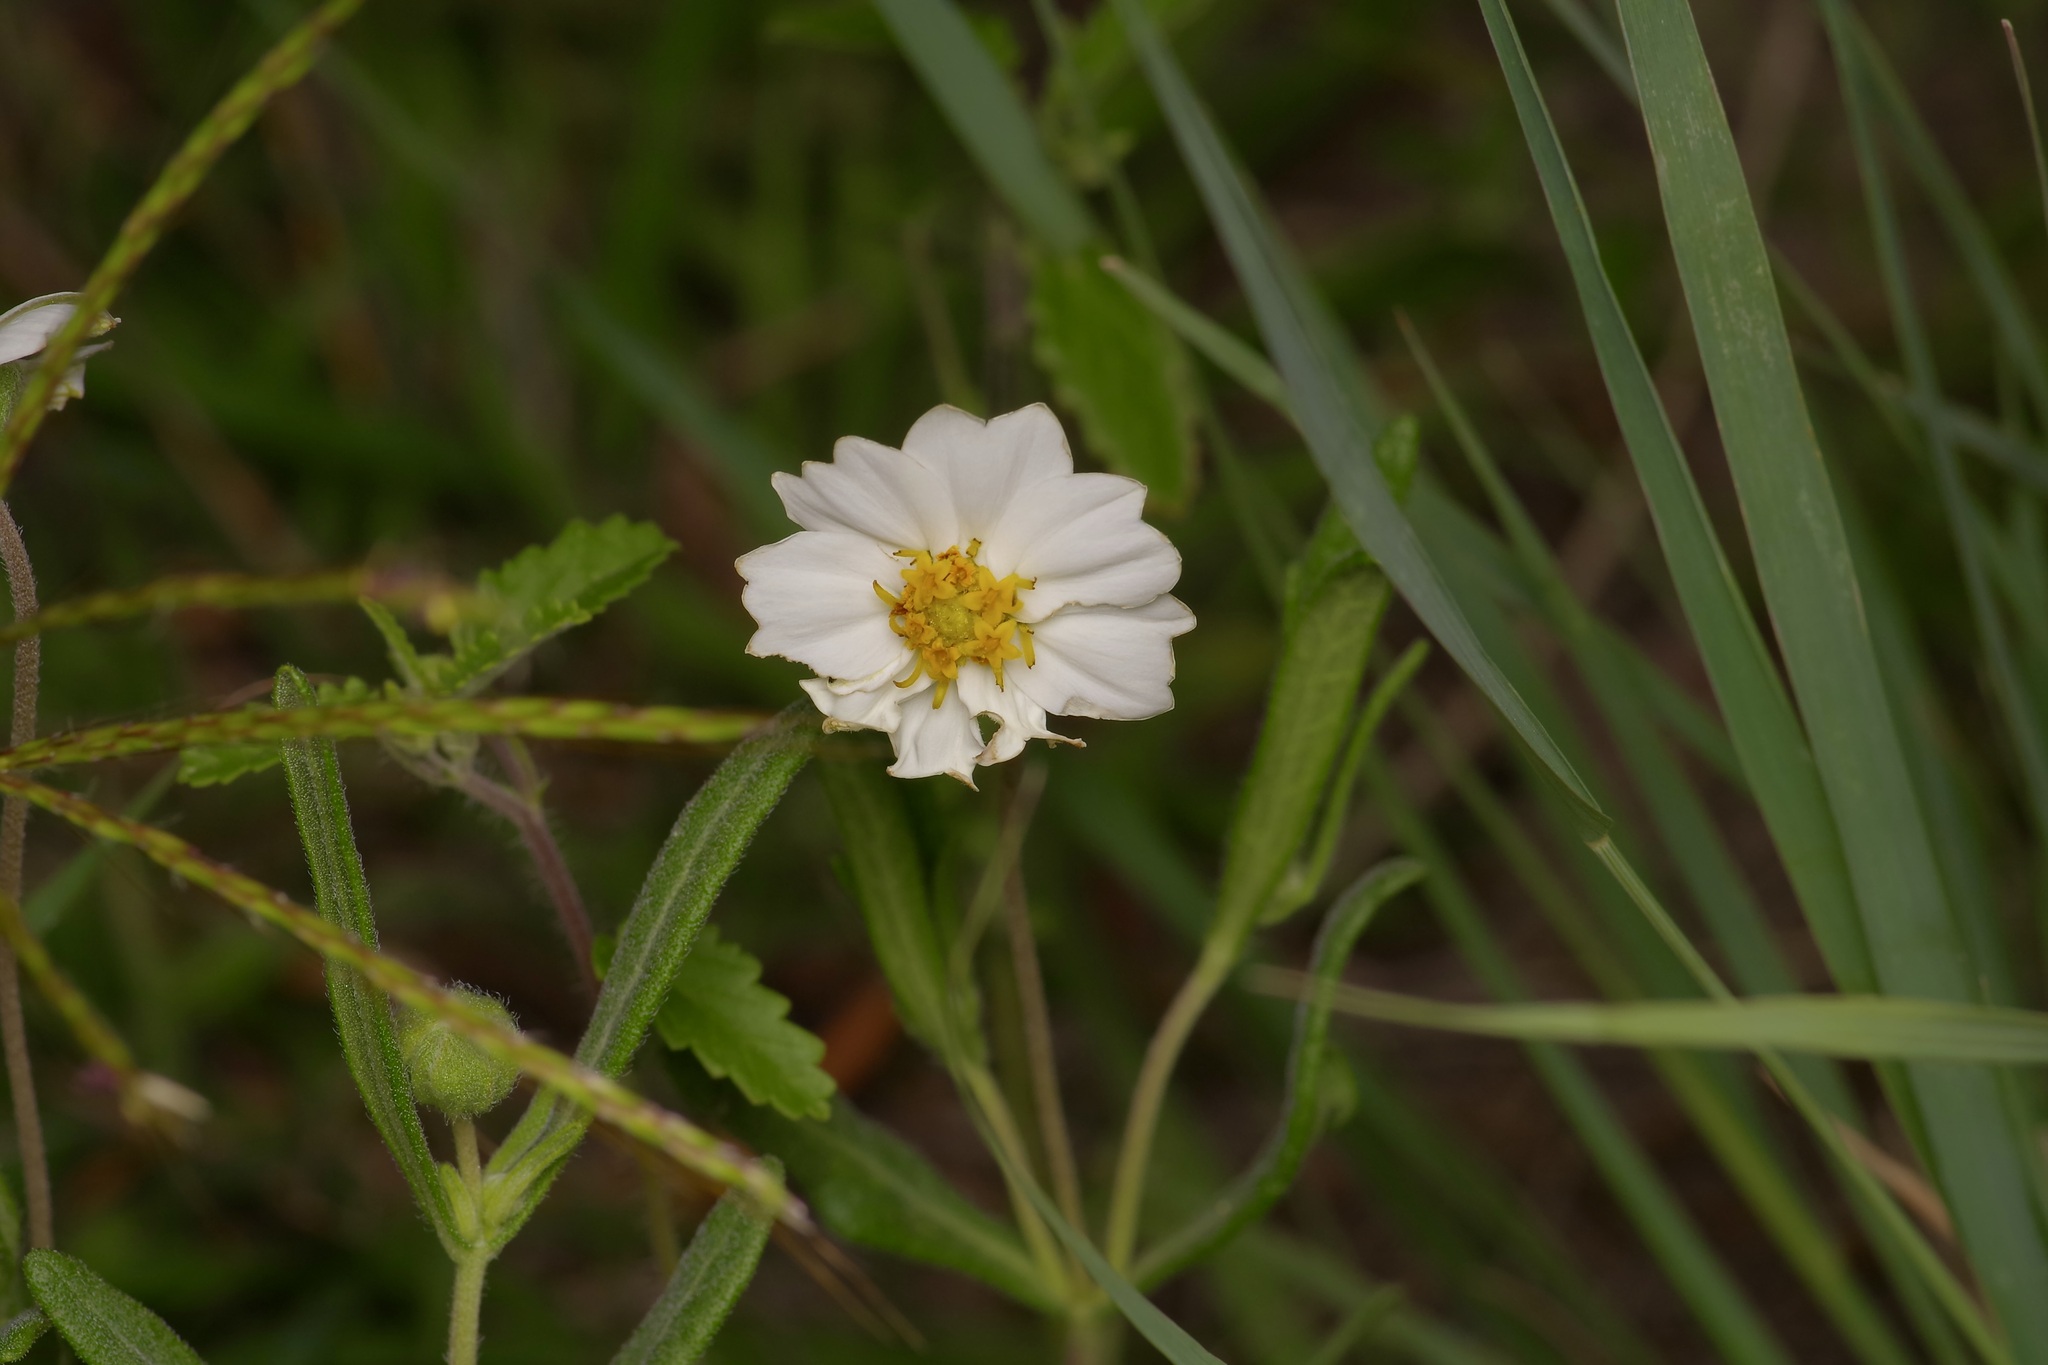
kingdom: Plantae
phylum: Tracheophyta
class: Magnoliopsida
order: Asterales
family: Asteraceae
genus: Melampodium
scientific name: Melampodium leucanthum
